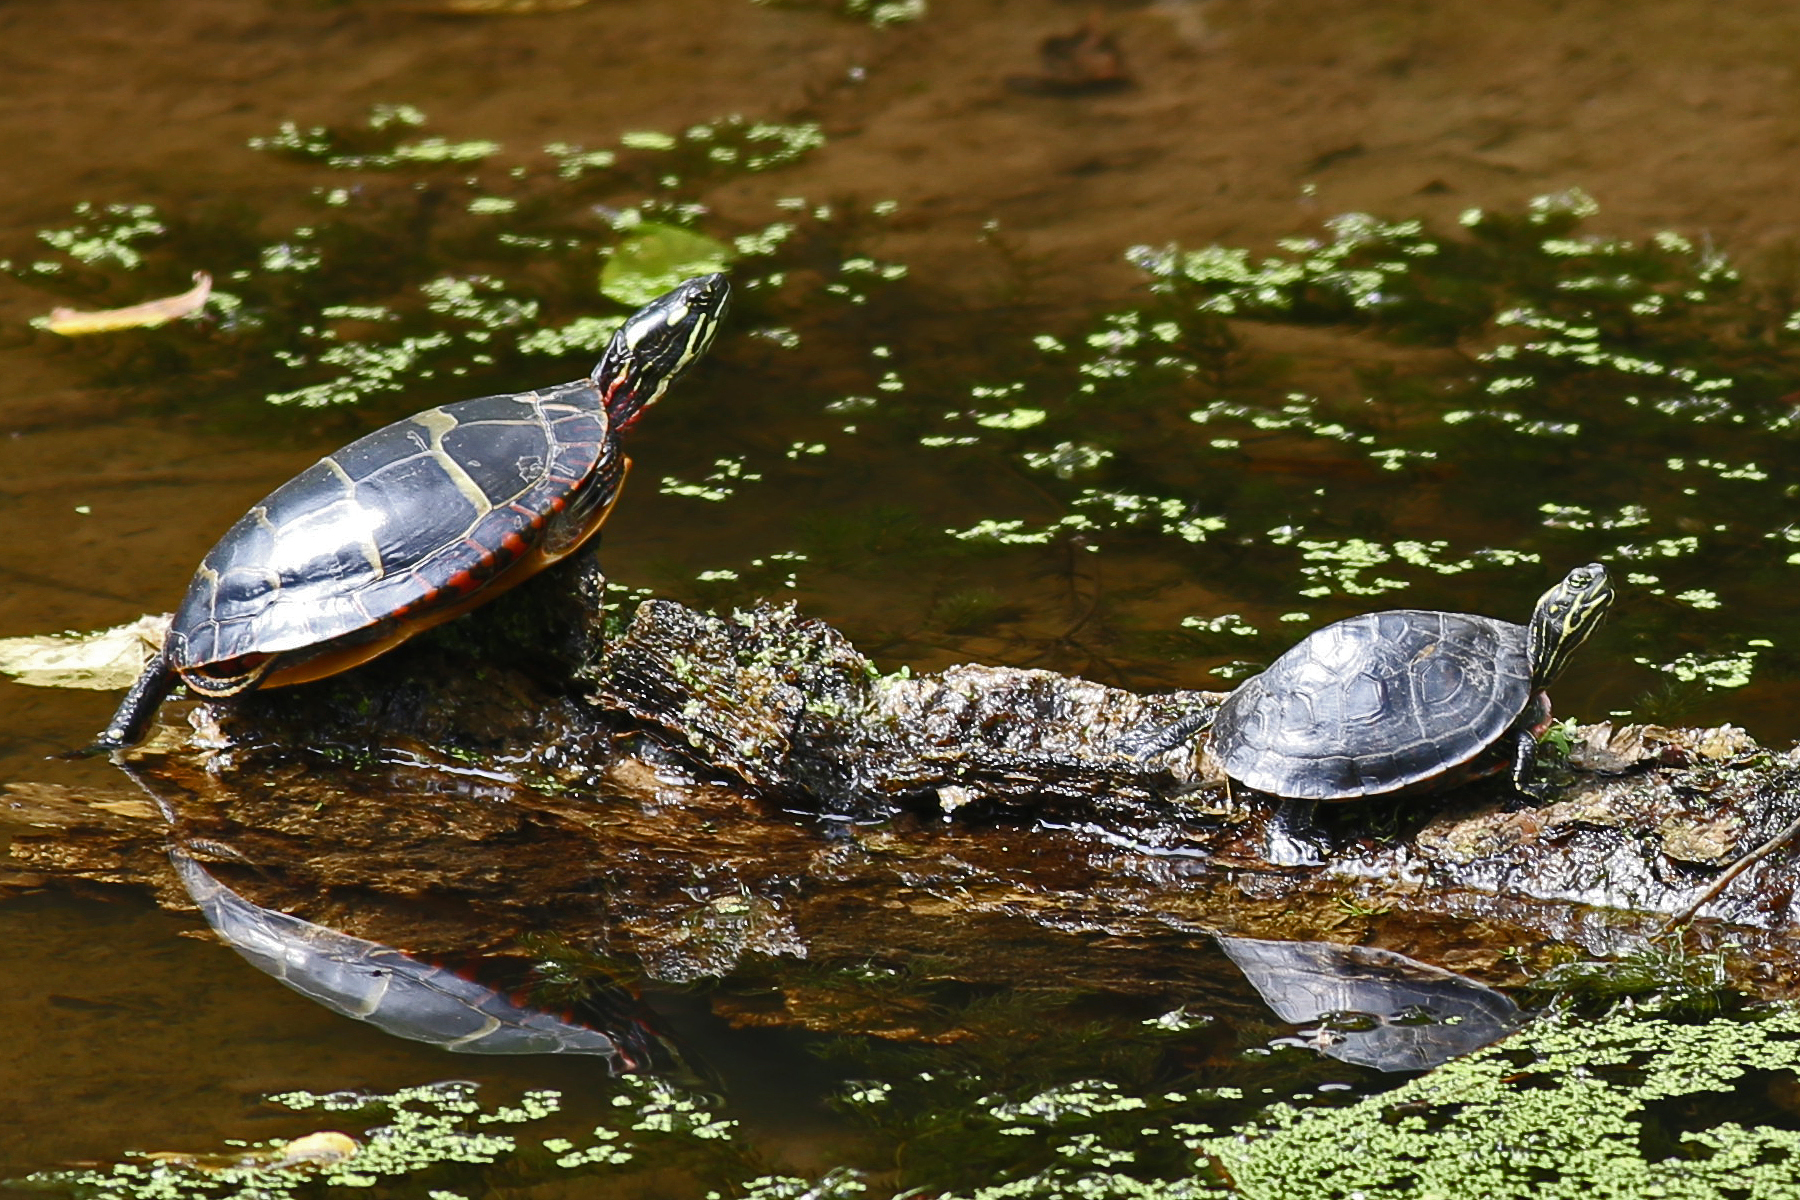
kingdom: Animalia
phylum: Chordata
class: Testudines
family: Emydidae
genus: Chrysemys
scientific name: Chrysemys picta
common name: Painted turtle
